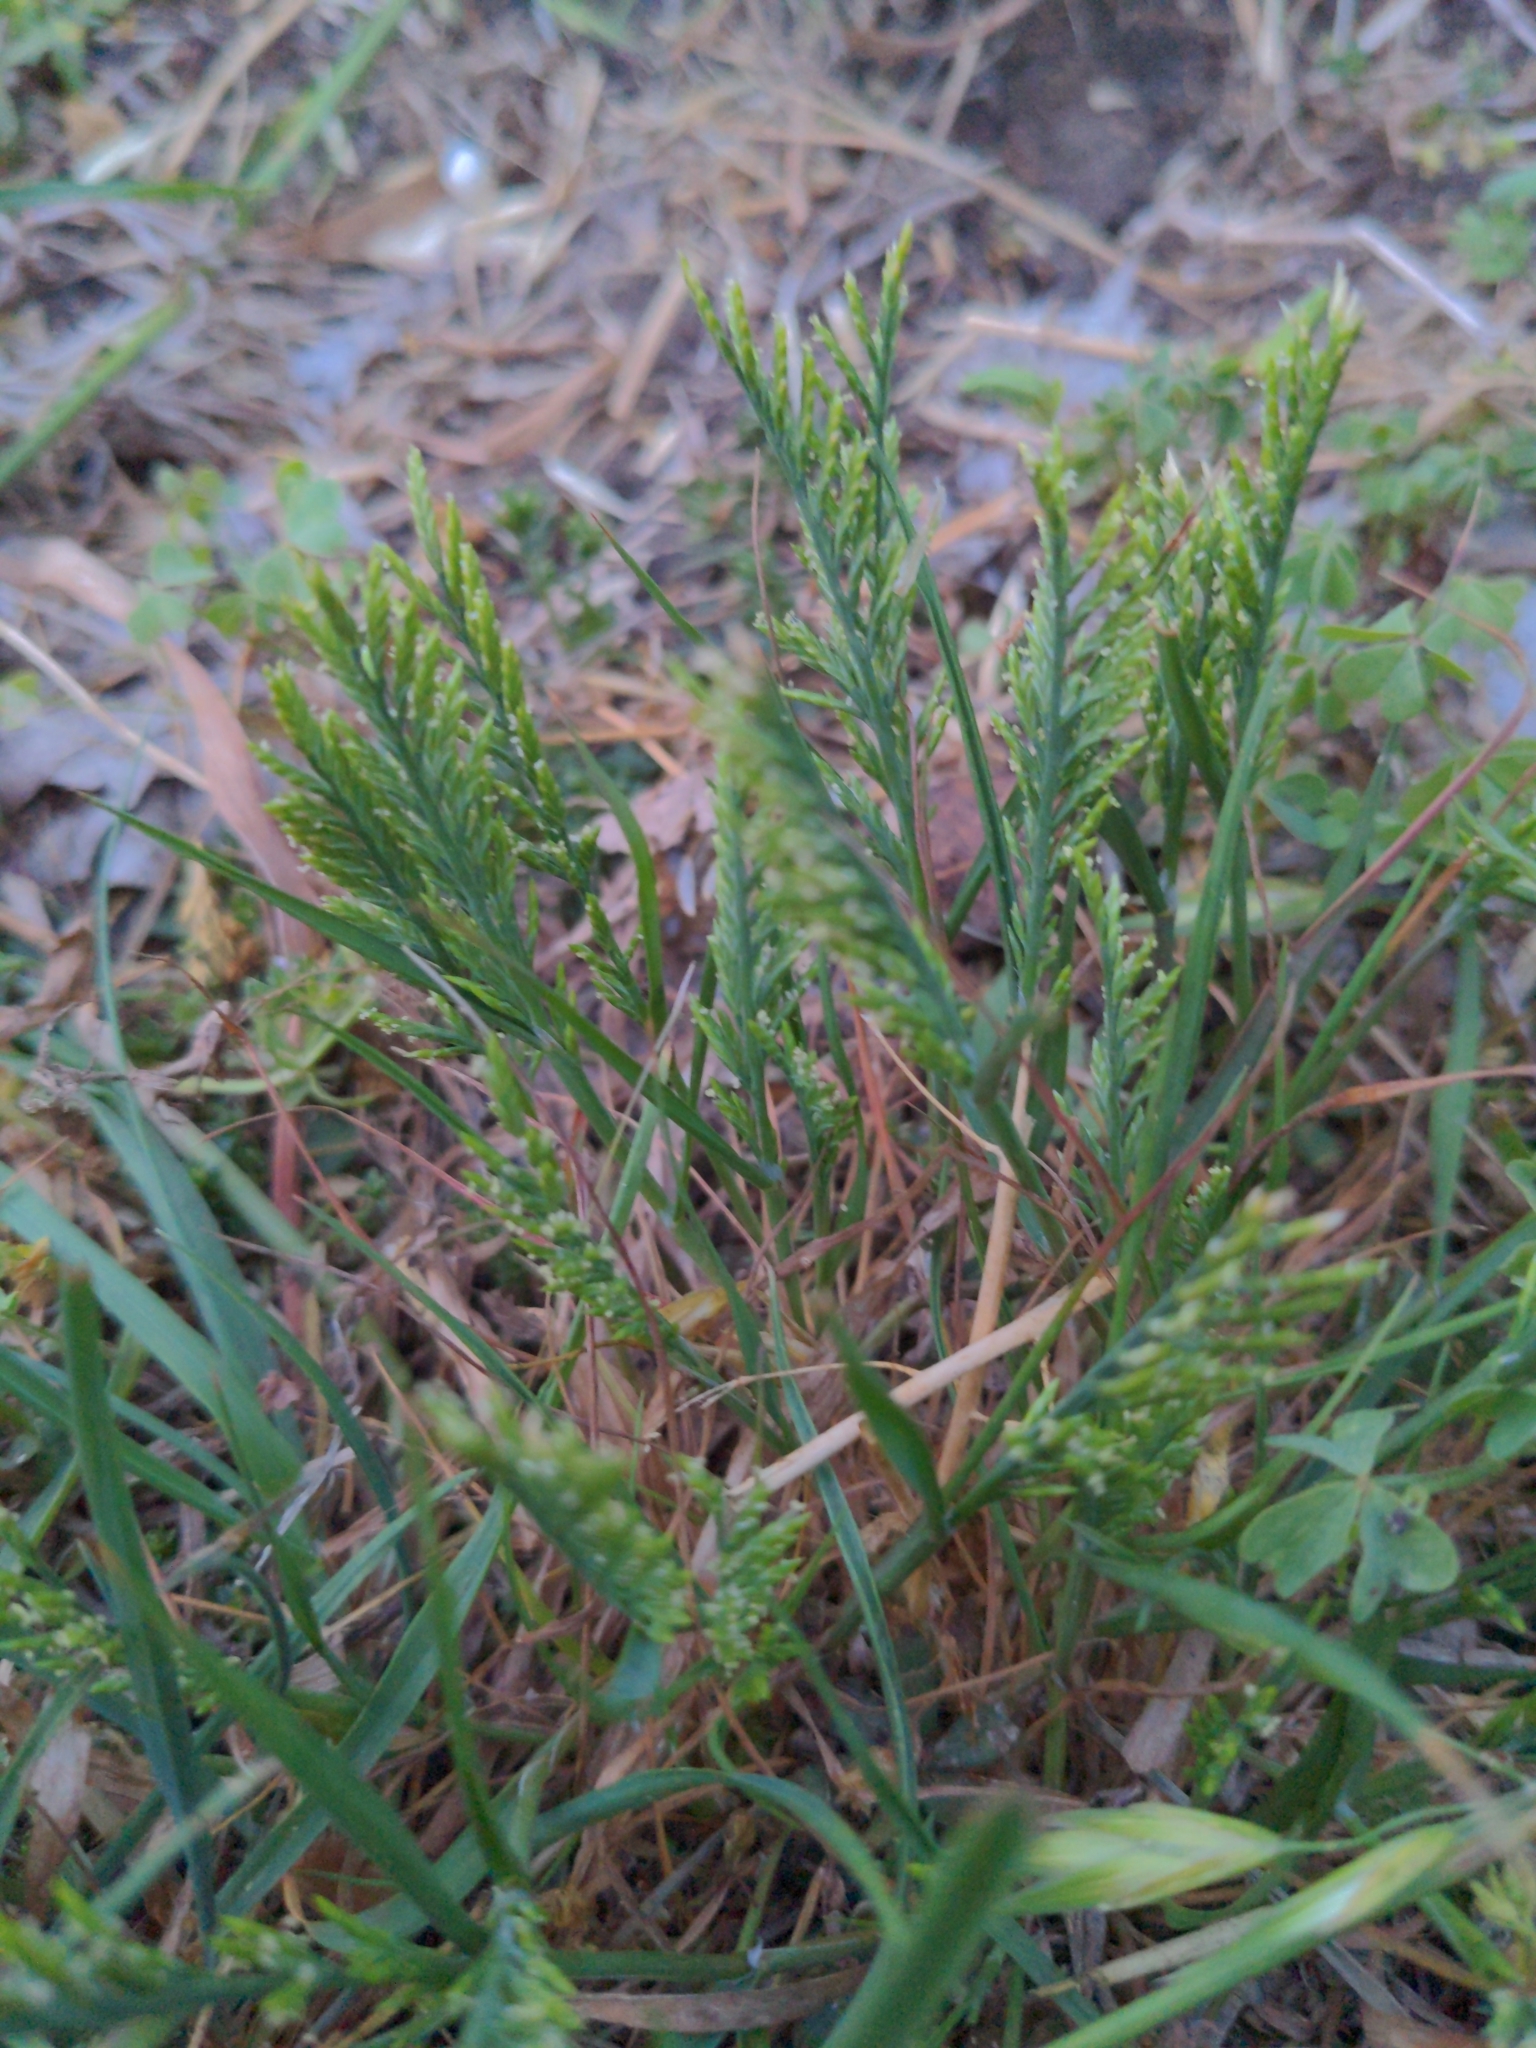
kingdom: Plantae
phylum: Tracheophyta
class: Liliopsida
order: Poales
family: Poaceae
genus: Catapodium
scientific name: Catapodium rigidum
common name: Fern-grass
